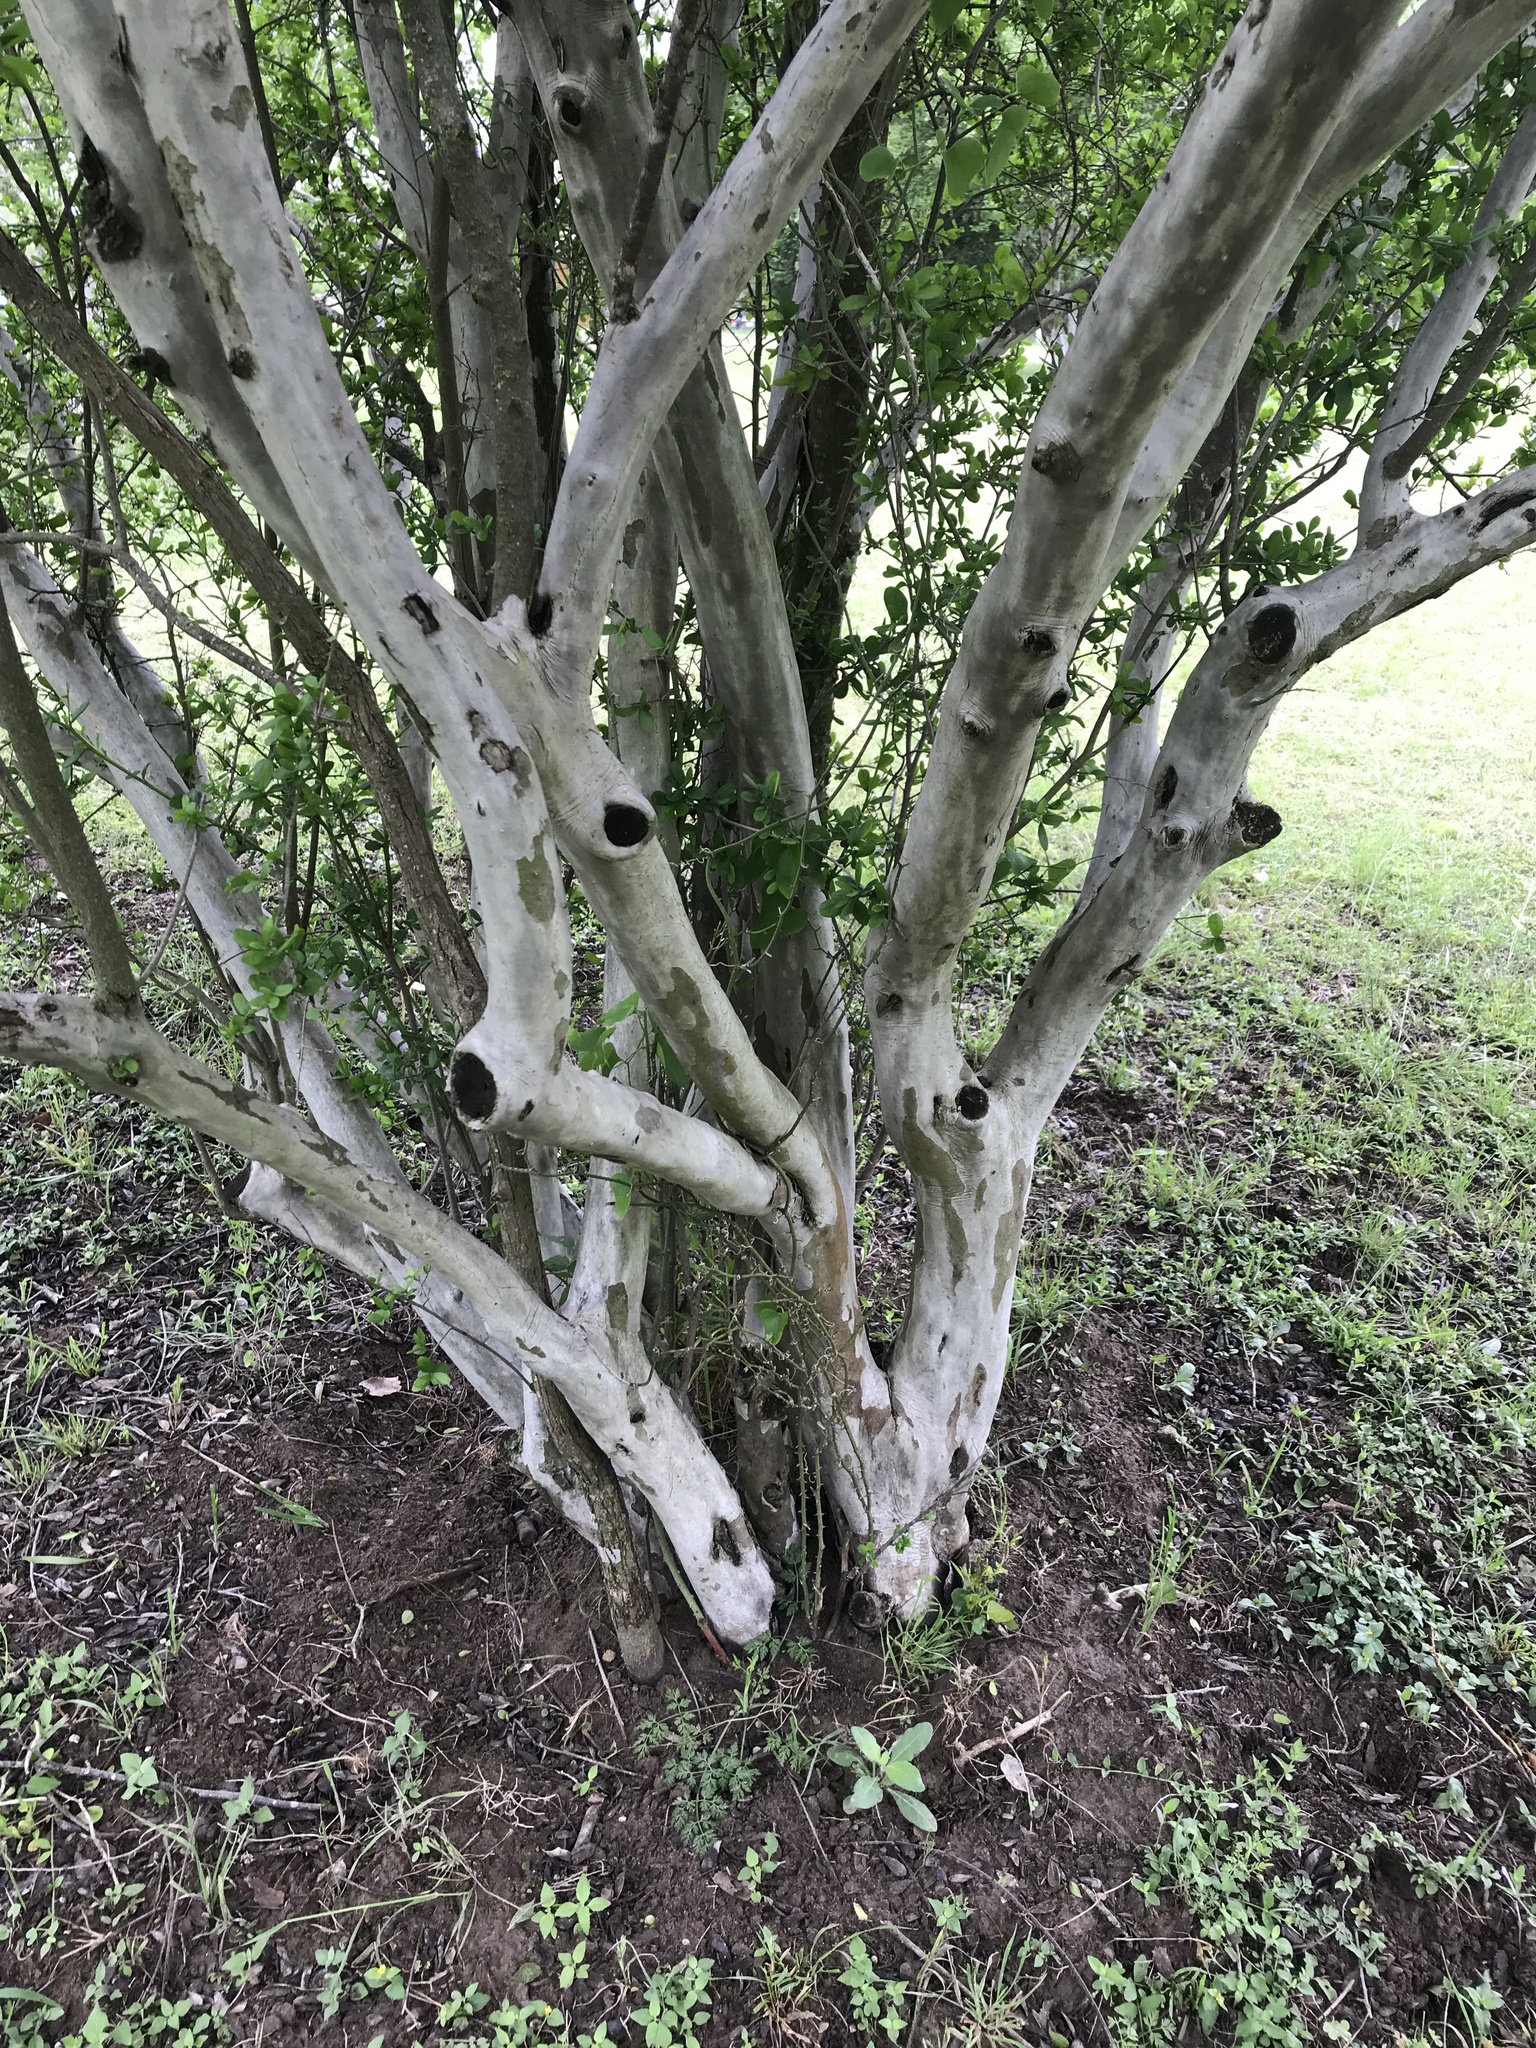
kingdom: Plantae
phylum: Tracheophyta
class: Magnoliopsida
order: Ericales
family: Ebenaceae
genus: Diospyros
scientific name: Diospyros texana
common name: Texas persimmon
